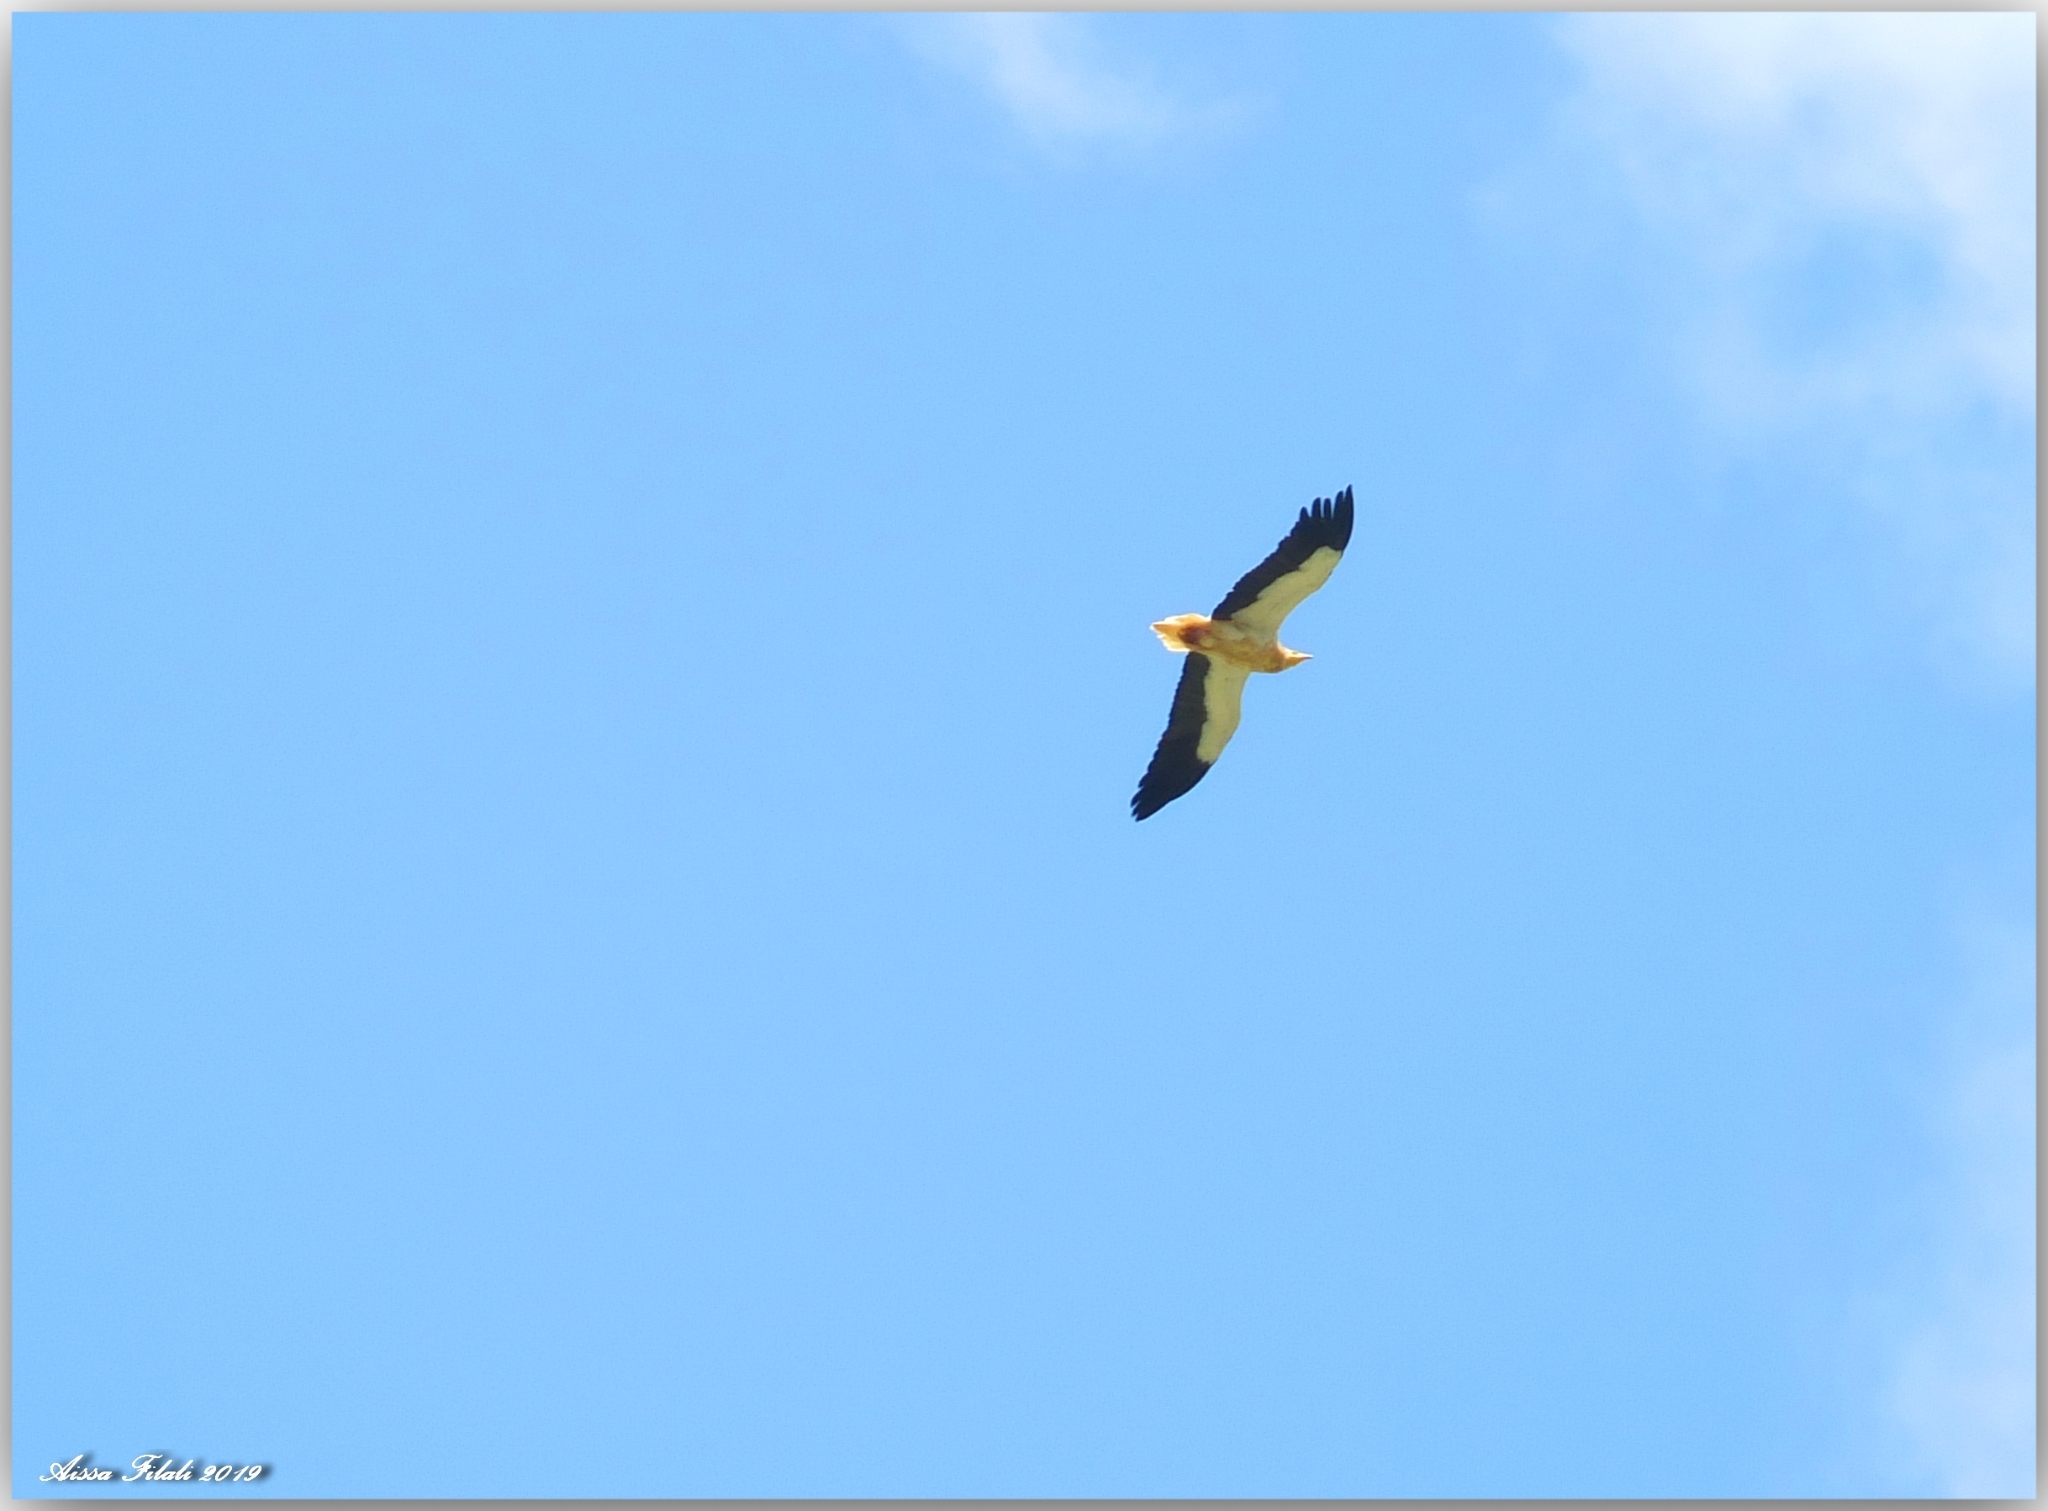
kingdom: Animalia
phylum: Chordata
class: Aves
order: Accipitriformes
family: Accipitridae
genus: Neophron
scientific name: Neophron percnopterus
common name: Egyptian vulture
